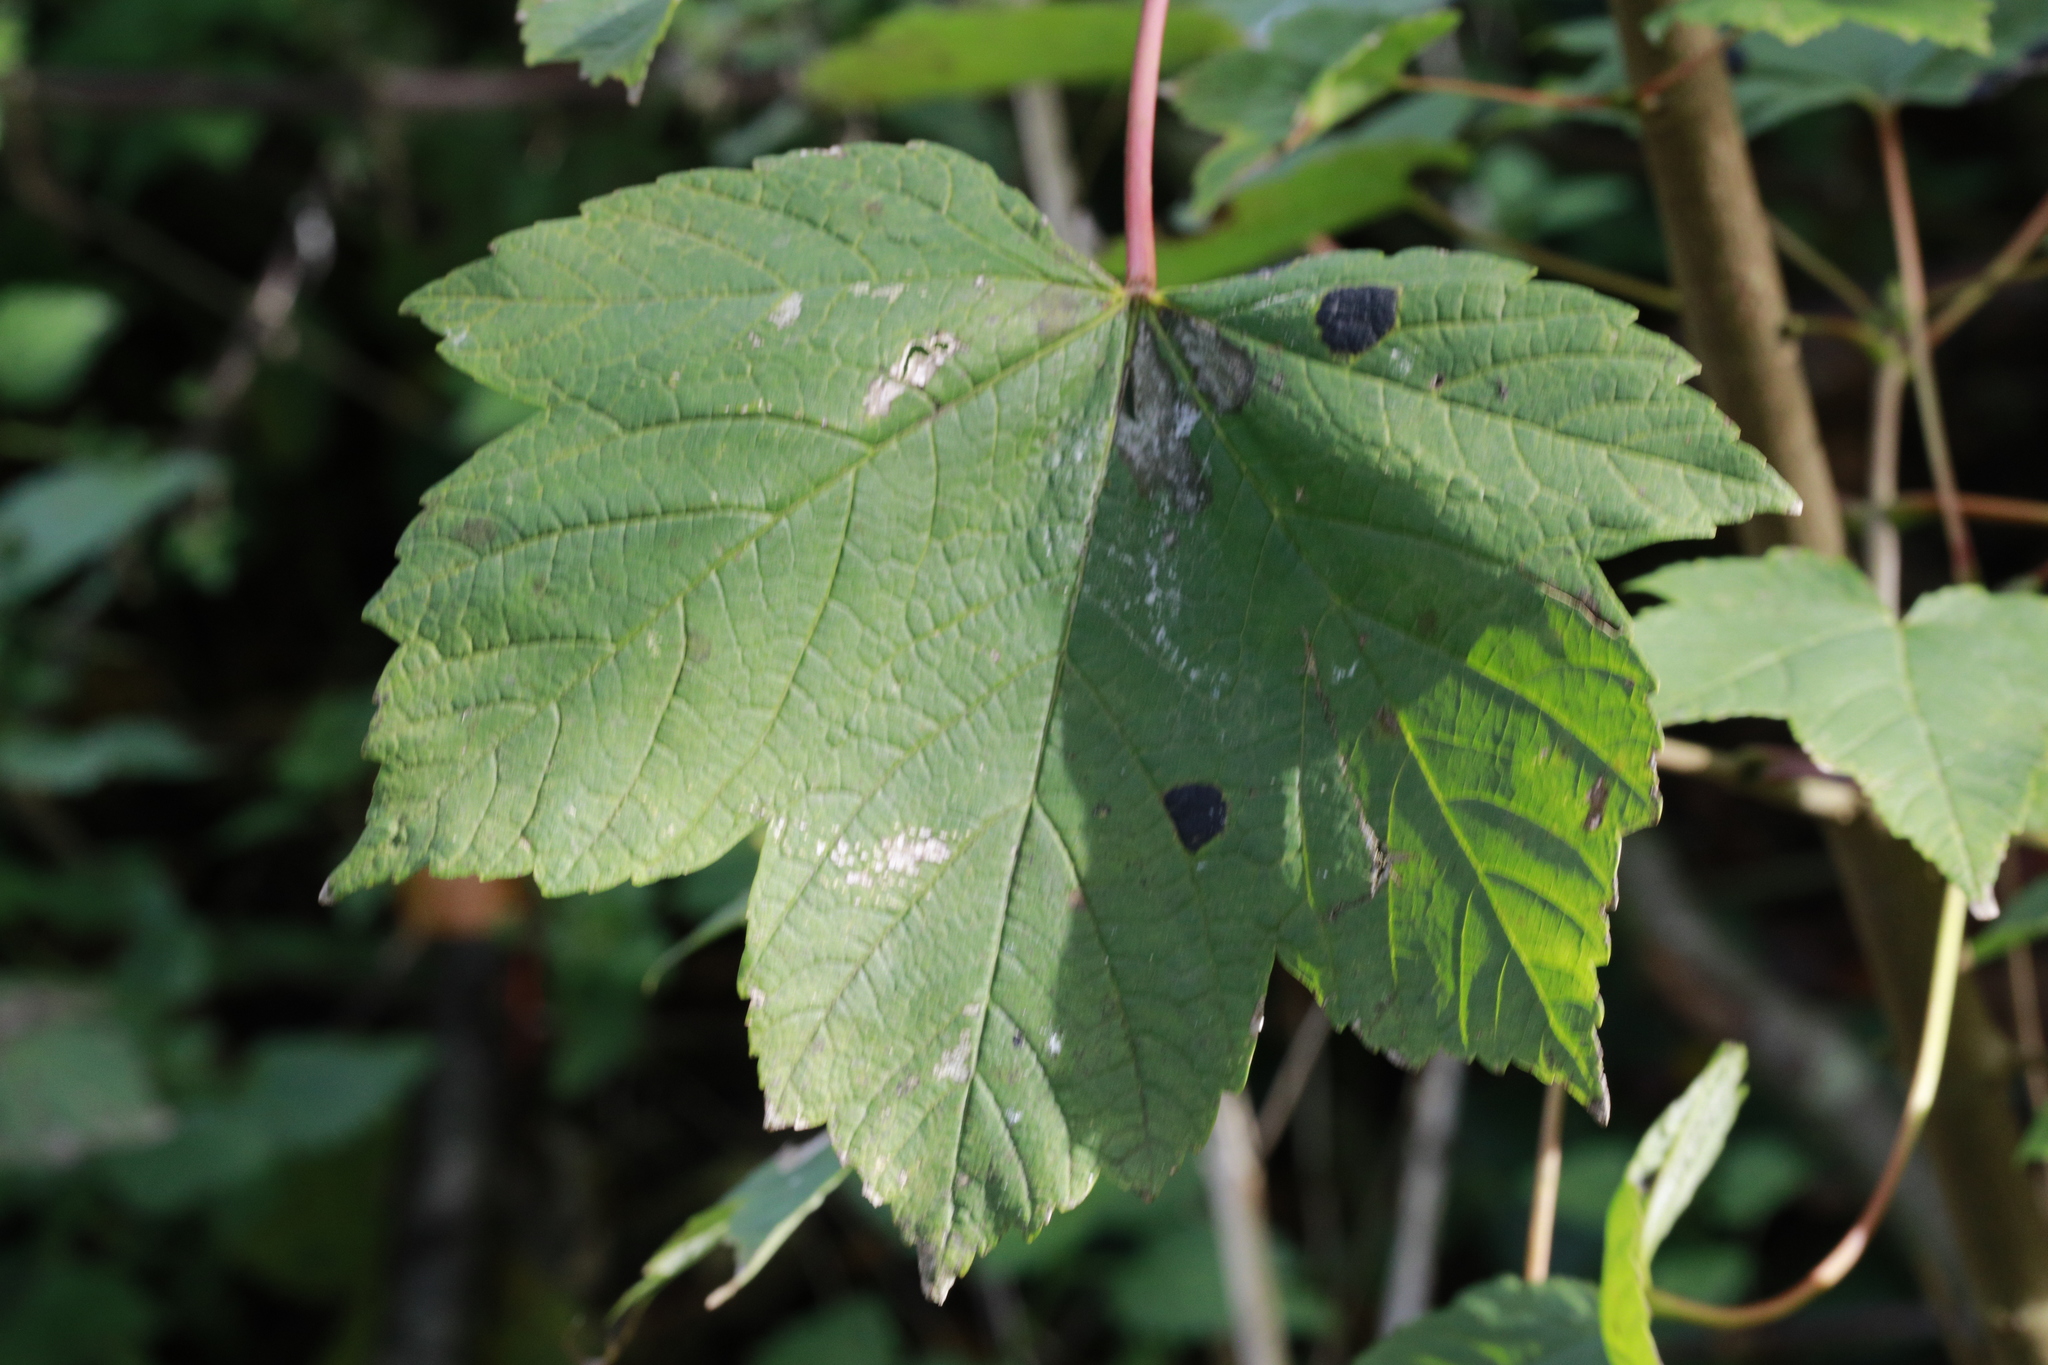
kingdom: Fungi
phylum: Ascomycota
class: Leotiomycetes
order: Rhytismatales
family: Rhytismataceae
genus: Rhytisma
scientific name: Rhytisma acerinum
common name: European tar spot
